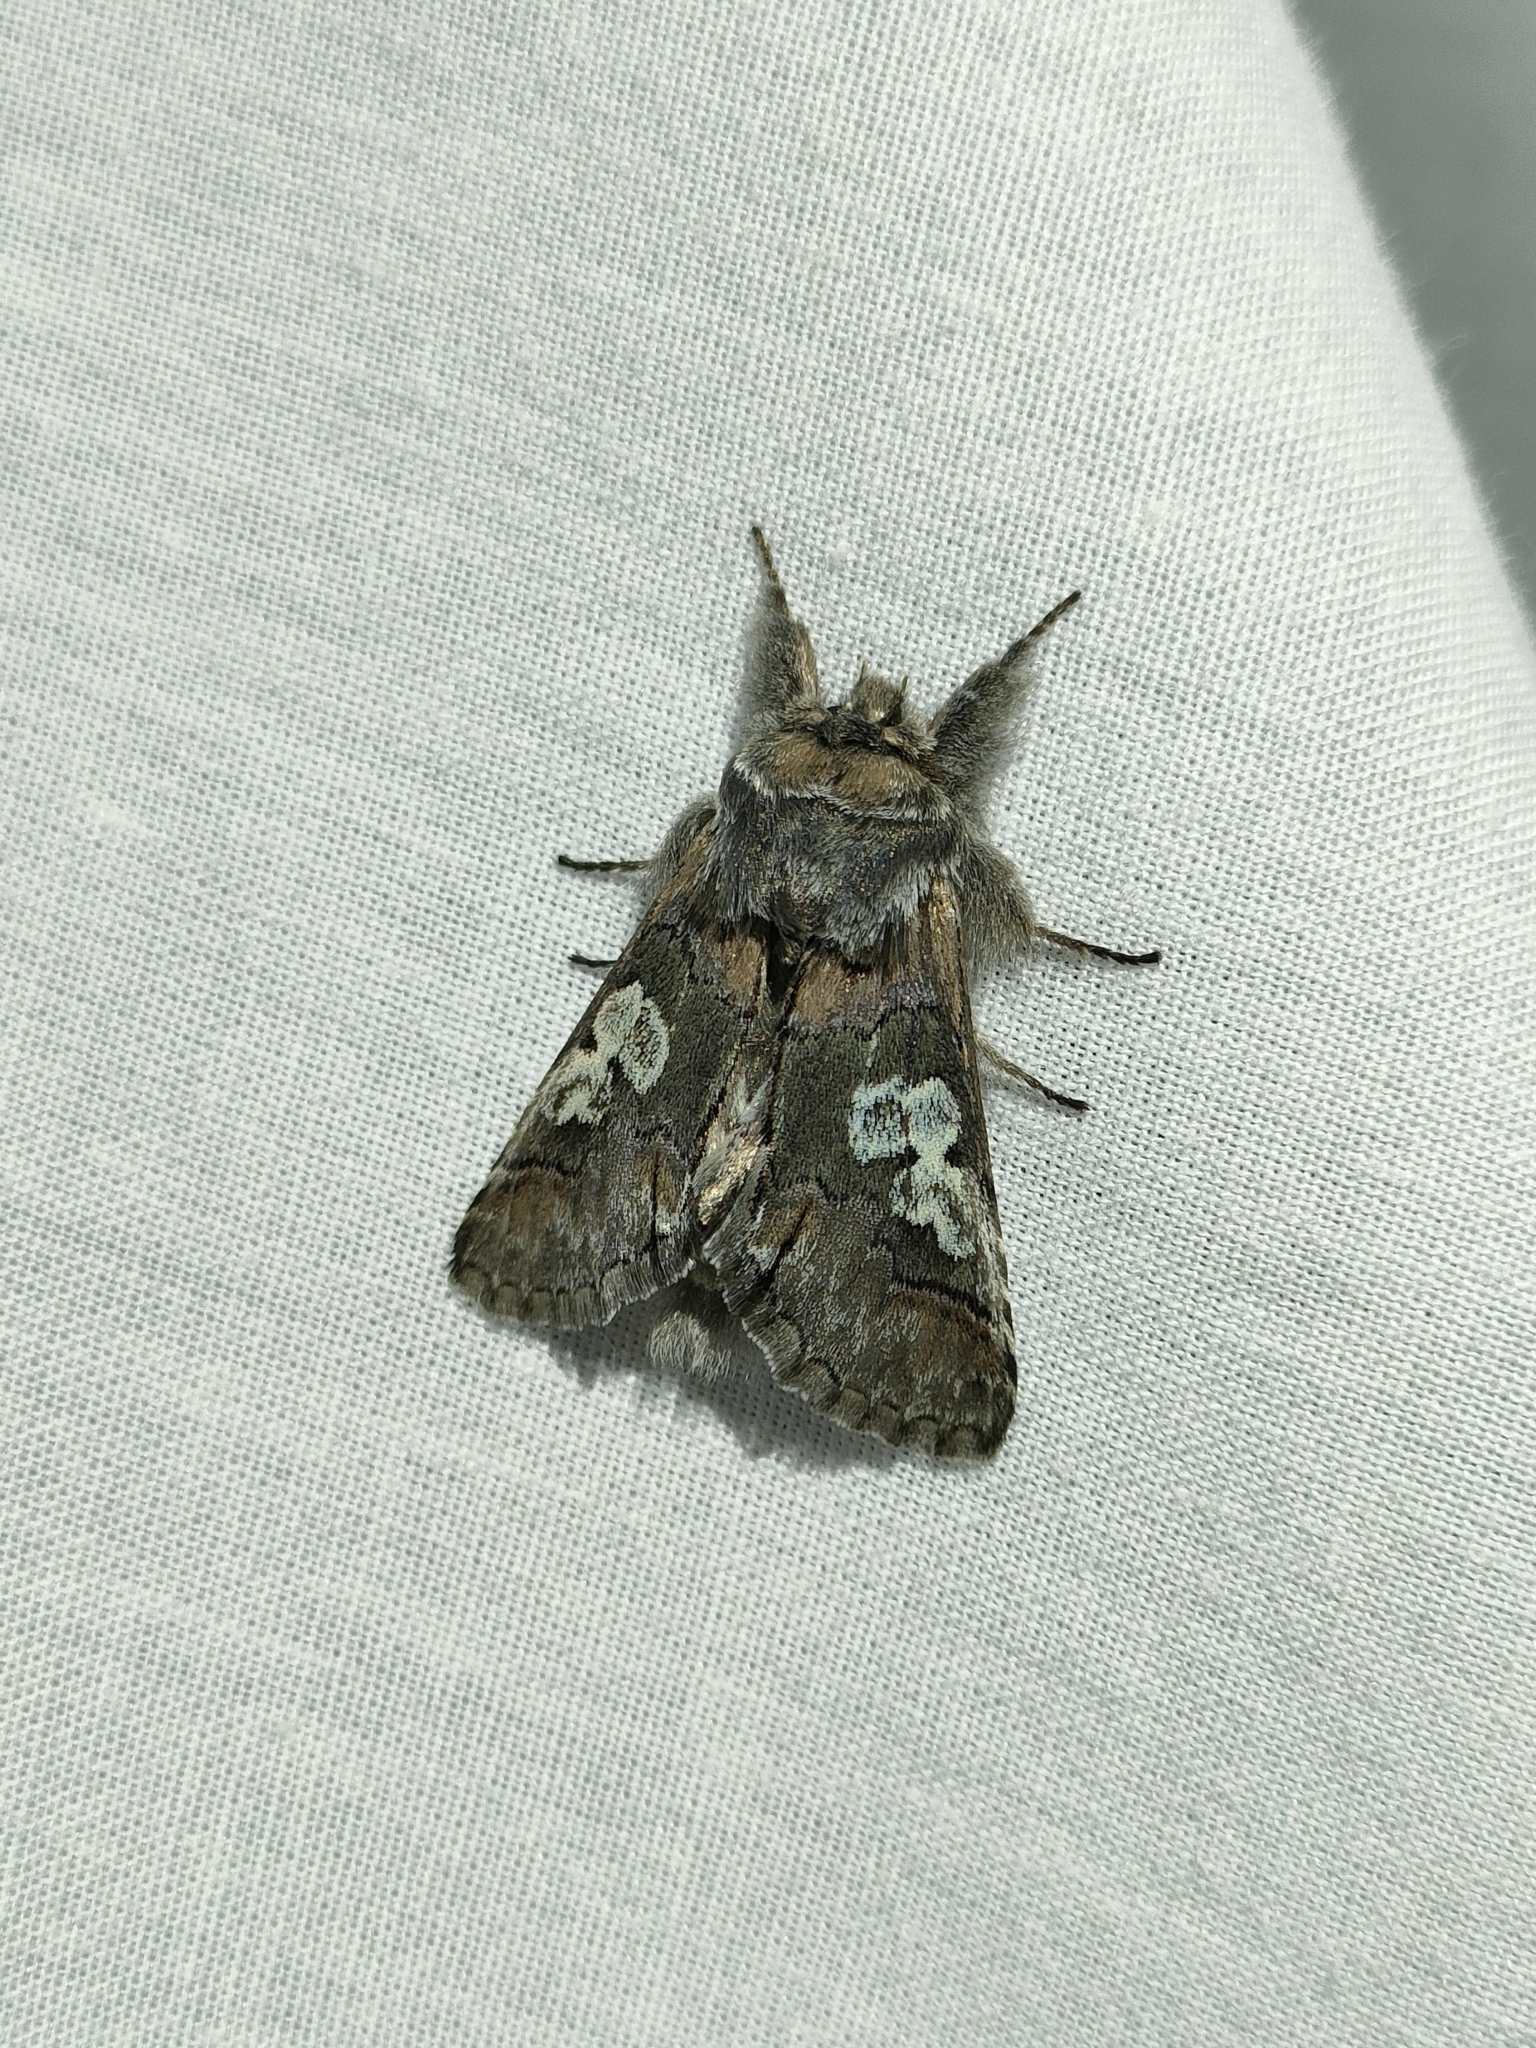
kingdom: Animalia
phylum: Arthropoda
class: Insecta
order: Lepidoptera
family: Noctuidae
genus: Diloba
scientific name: Diloba caeruleocephala
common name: Figure of eight
